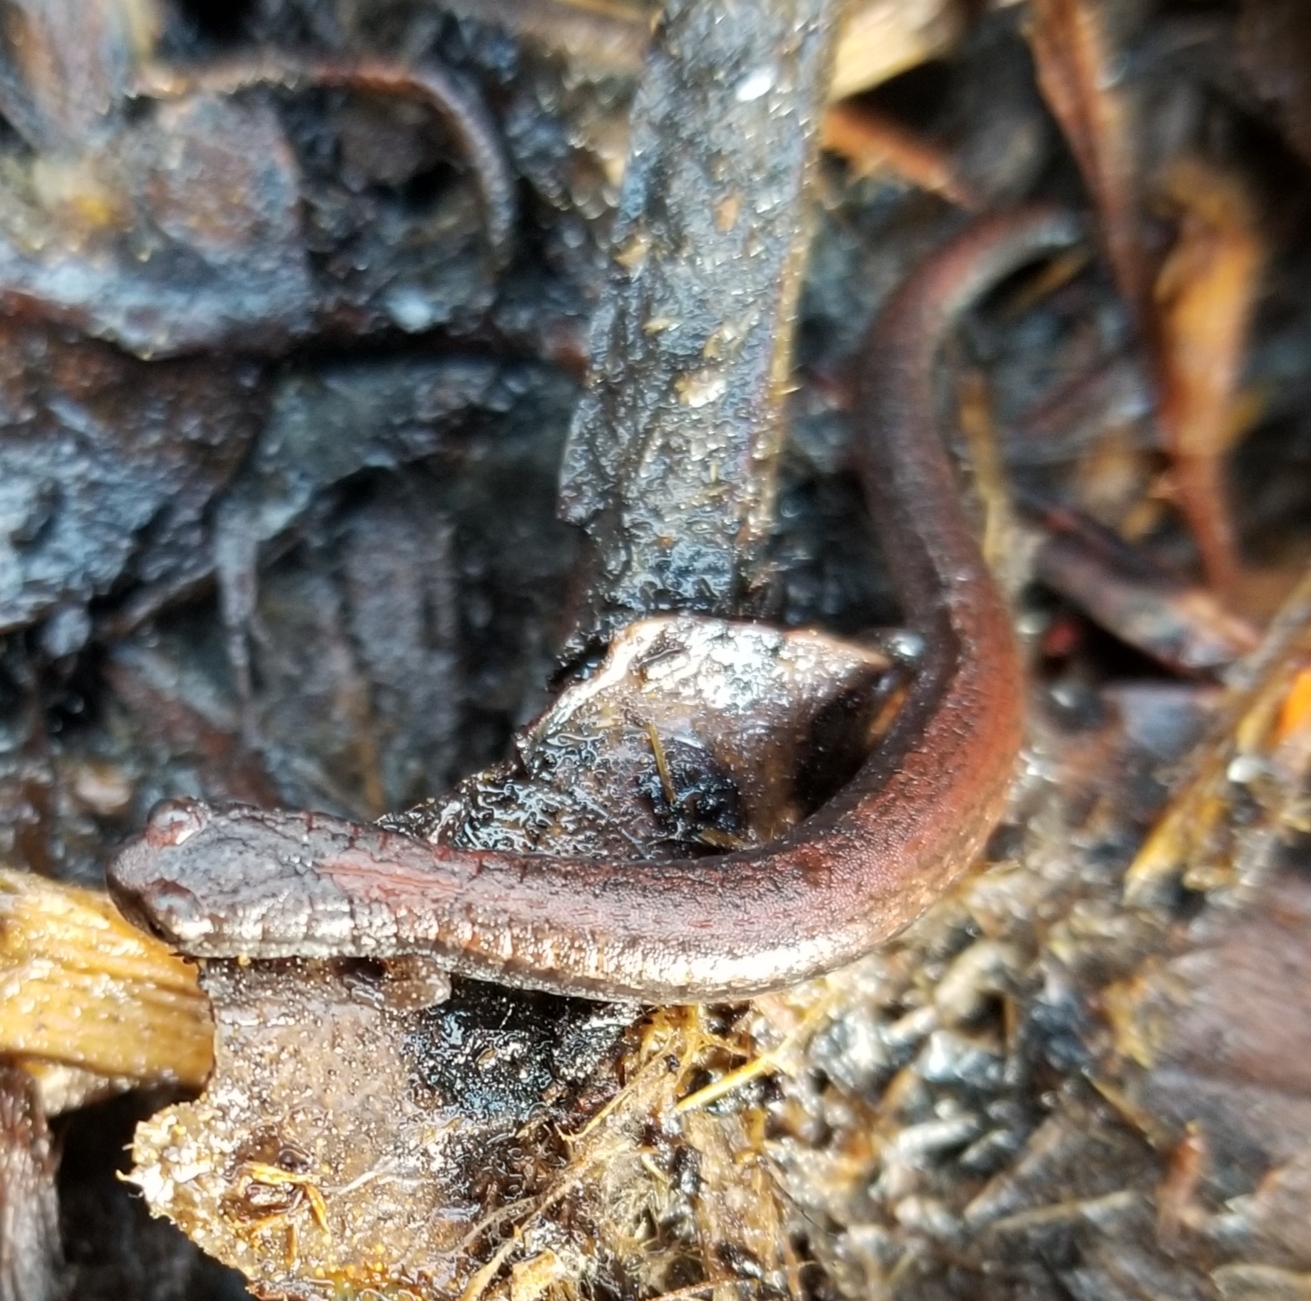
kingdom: Animalia
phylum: Chordata
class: Amphibia
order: Caudata
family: Plethodontidae
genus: Batrachoseps
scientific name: Batrachoseps attenuatus
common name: California slender salamander
